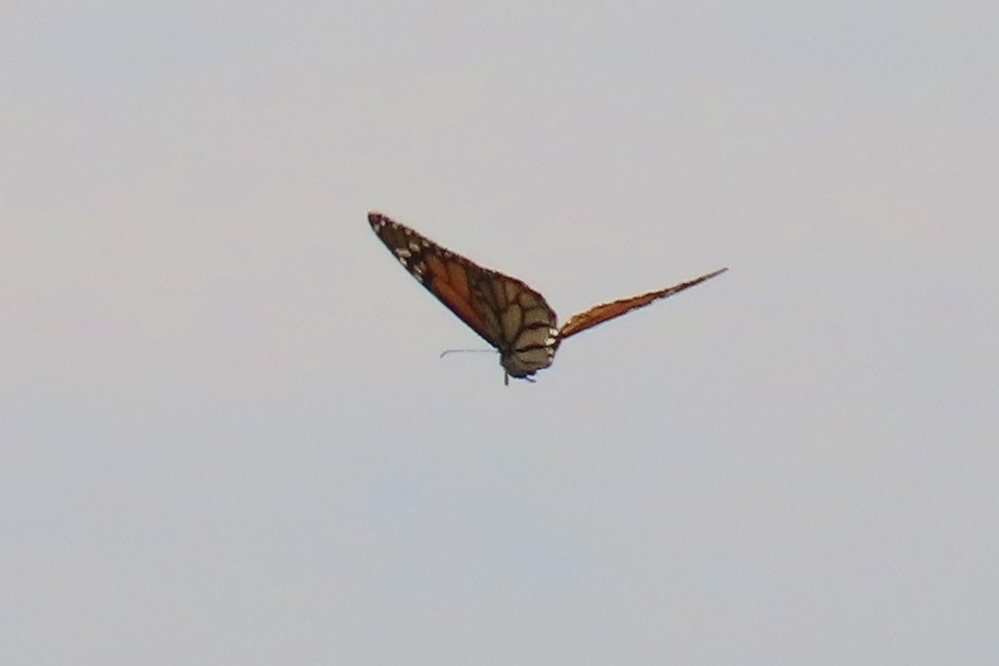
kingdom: Animalia
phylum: Arthropoda
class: Insecta
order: Lepidoptera
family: Nymphalidae
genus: Danaus
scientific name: Danaus plexippus
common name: Monarch
